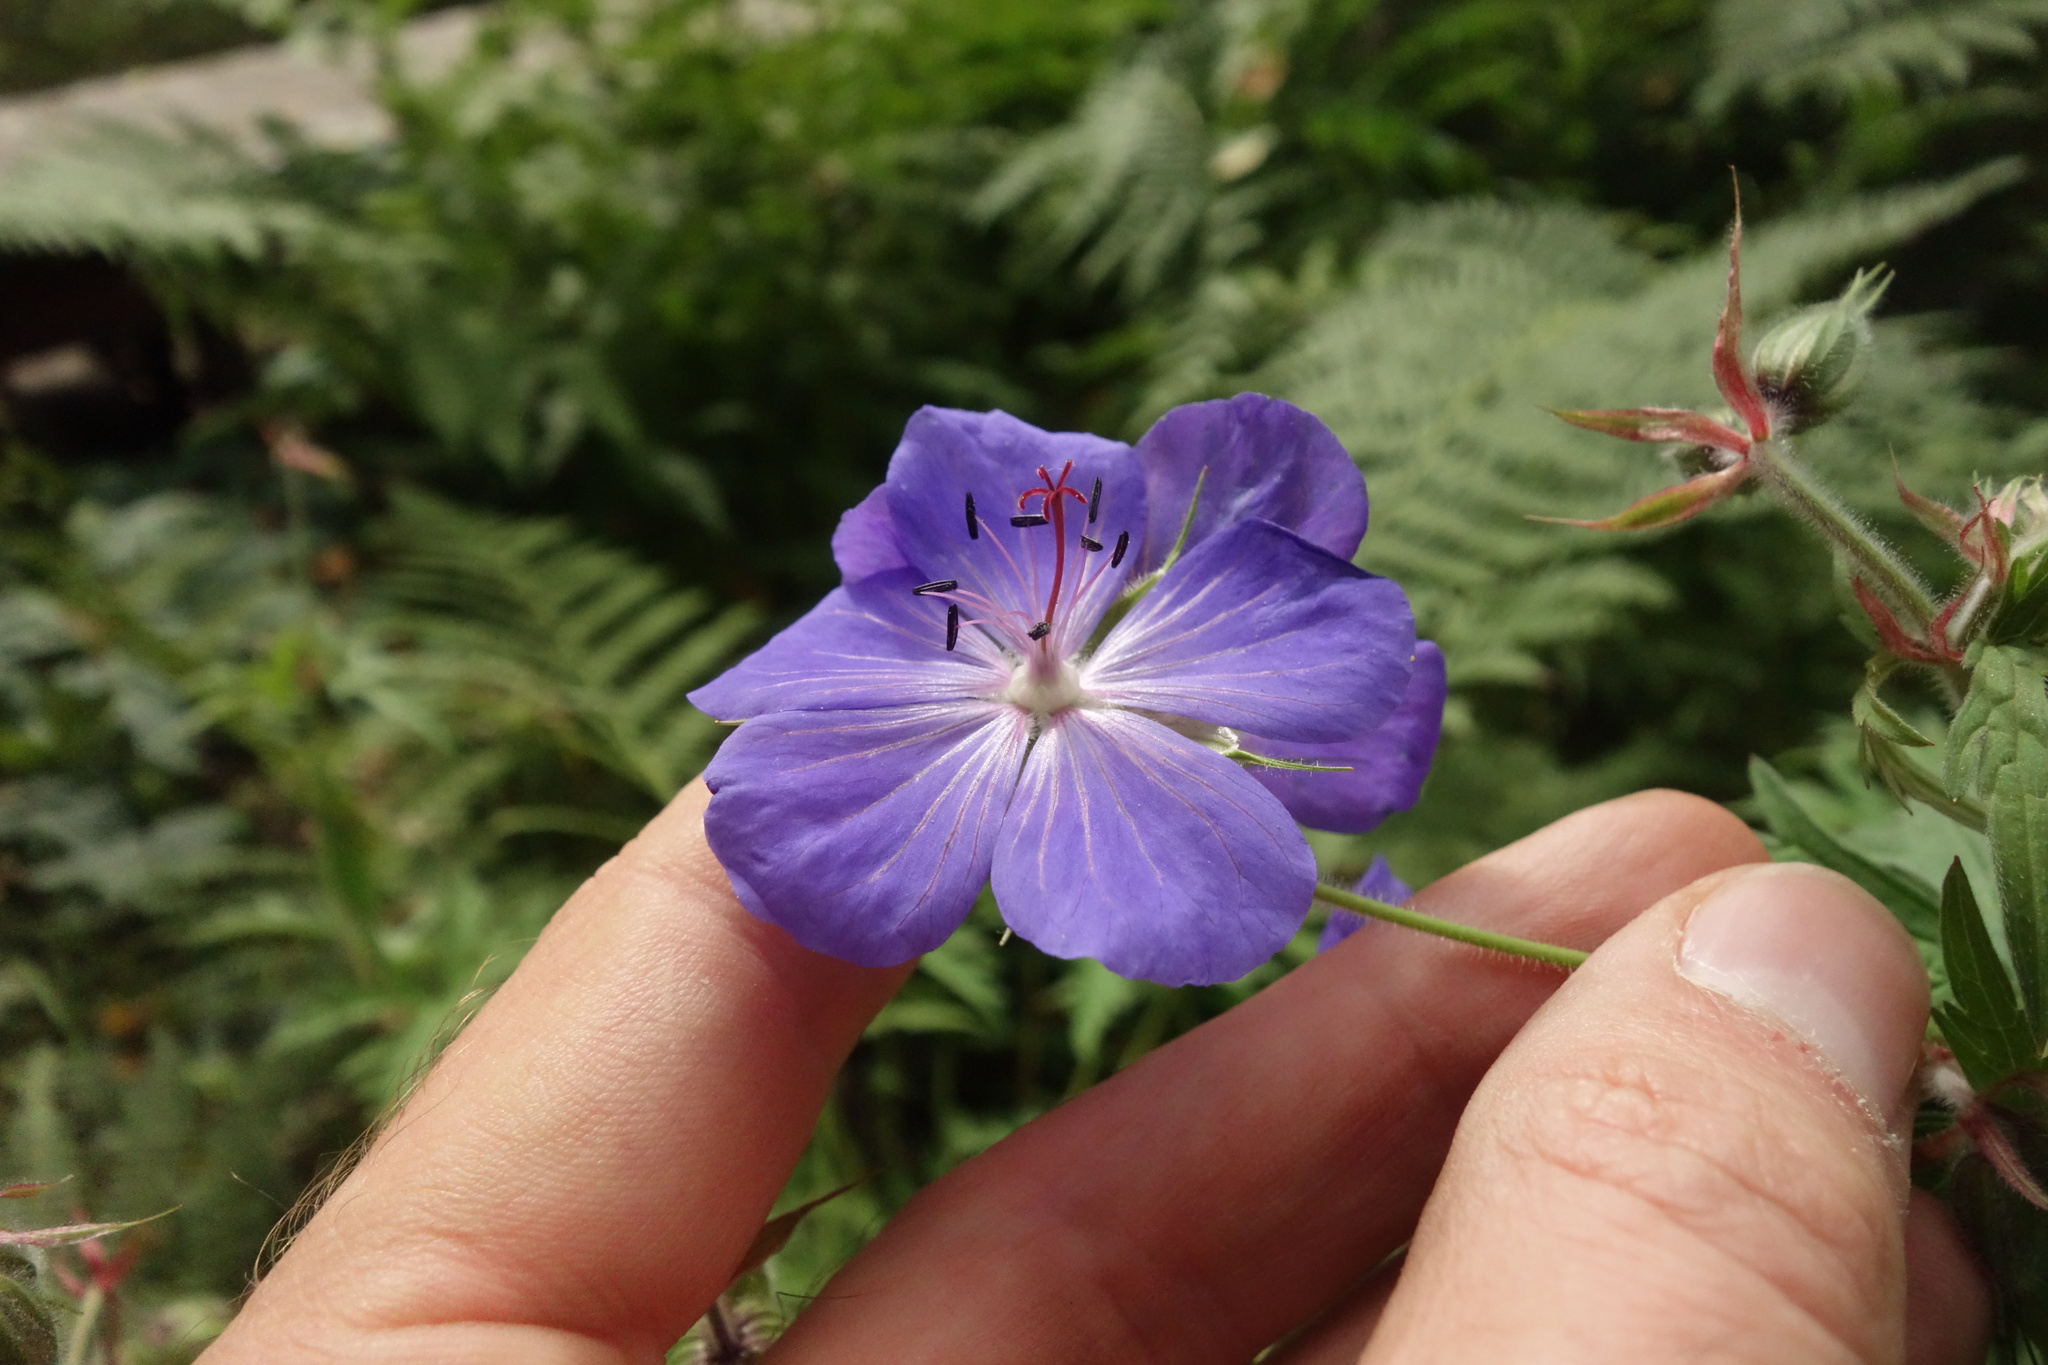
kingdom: Plantae
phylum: Tracheophyta
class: Magnoliopsida
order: Geraniales
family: Geraniaceae
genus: Geranium
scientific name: Geranium pratense
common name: Meadow crane's-bill
